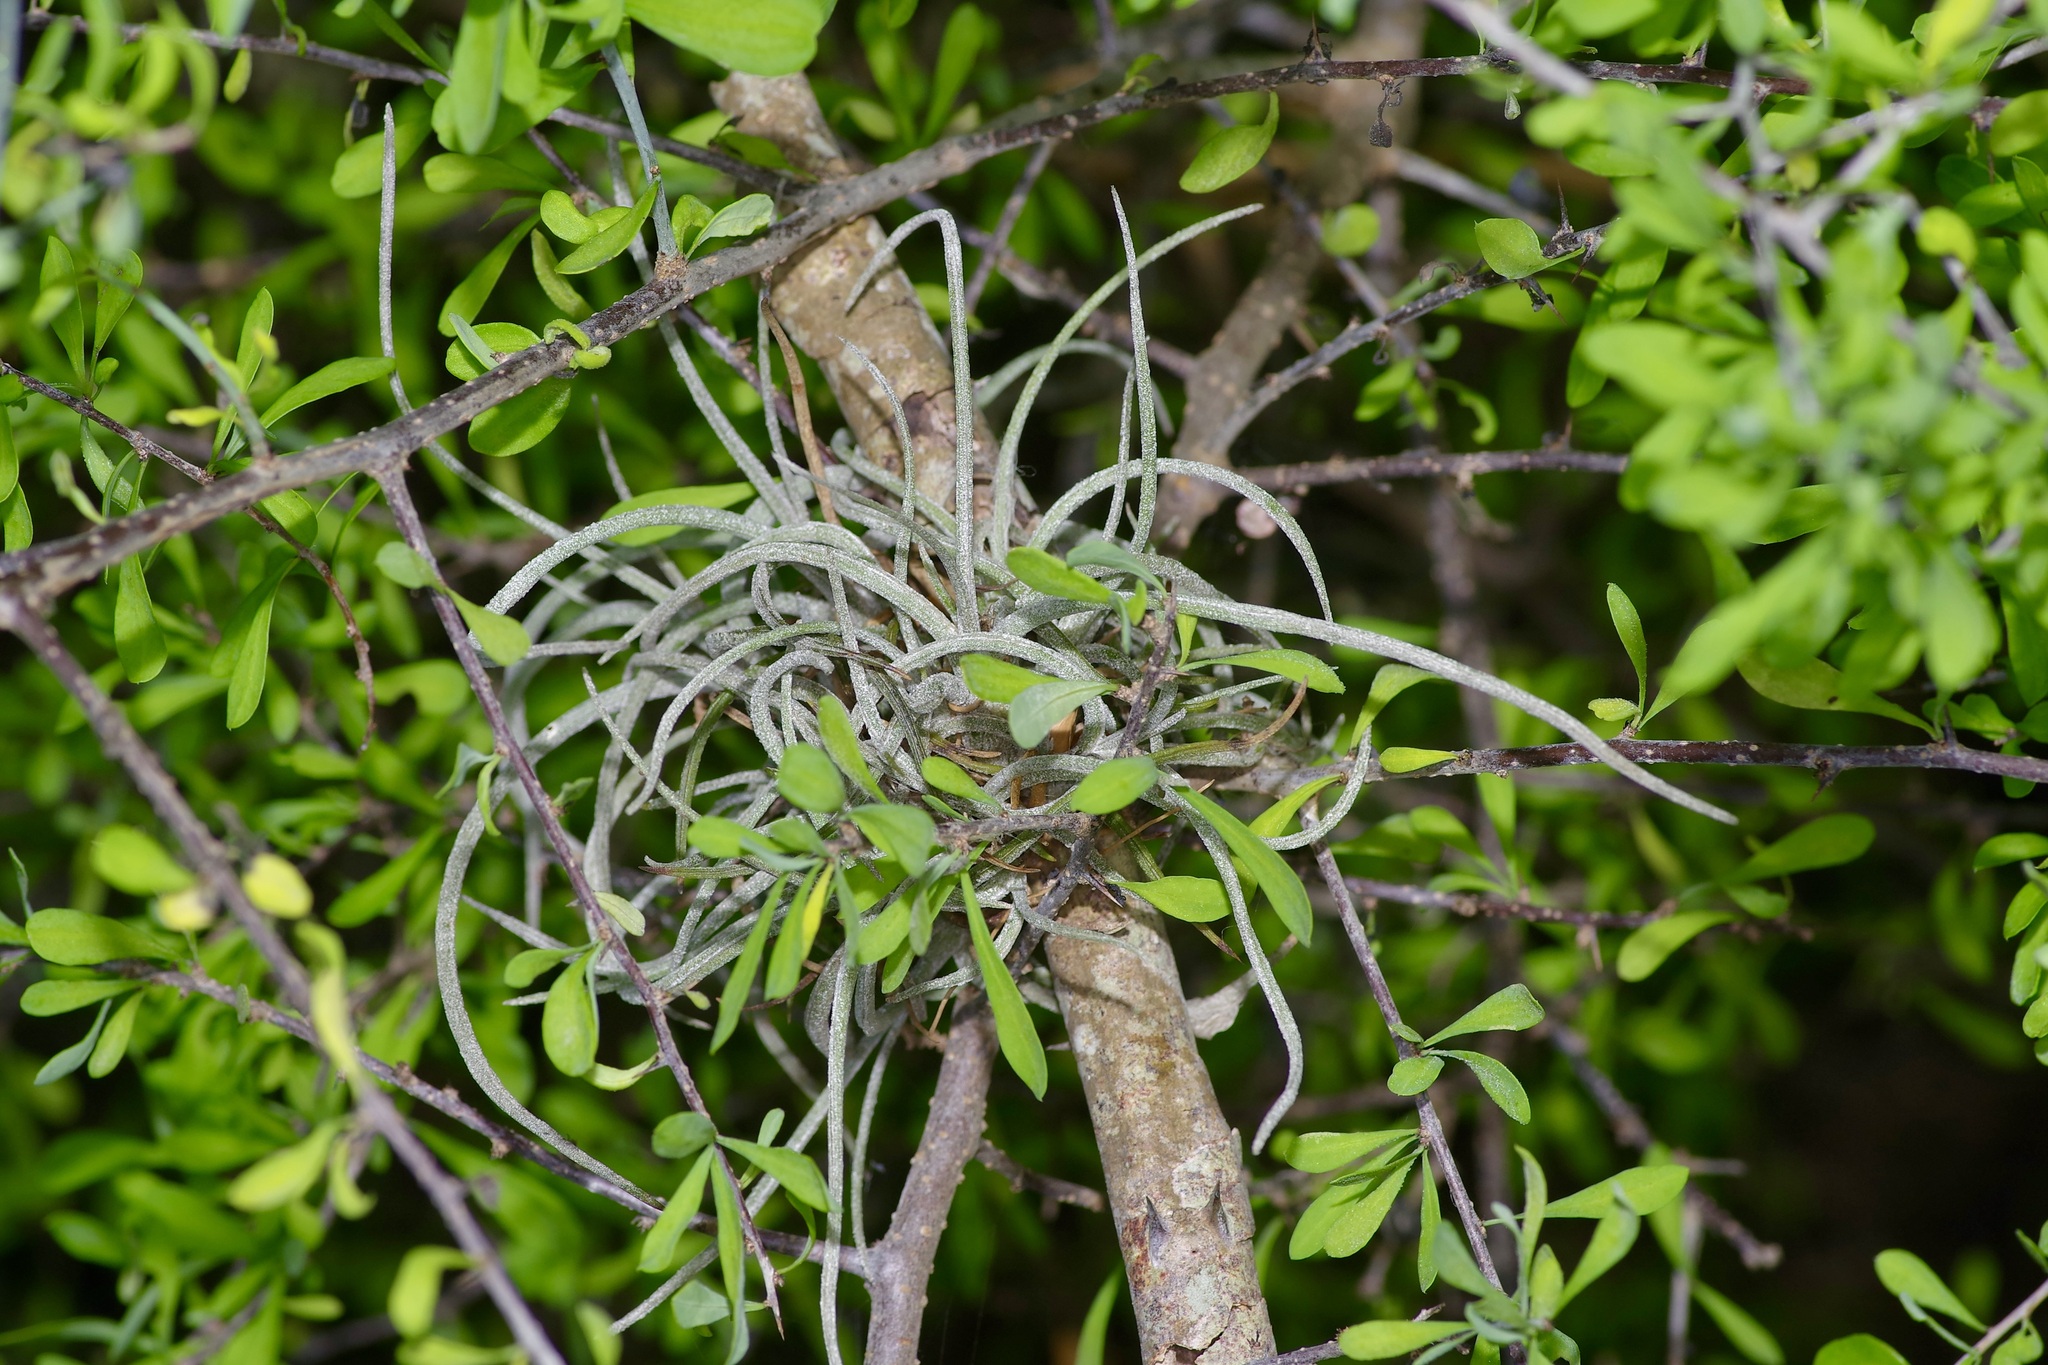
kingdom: Plantae
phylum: Tracheophyta
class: Liliopsida
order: Poales
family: Bromeliaceae
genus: Tillandsia
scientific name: Tillandsia baileyi
